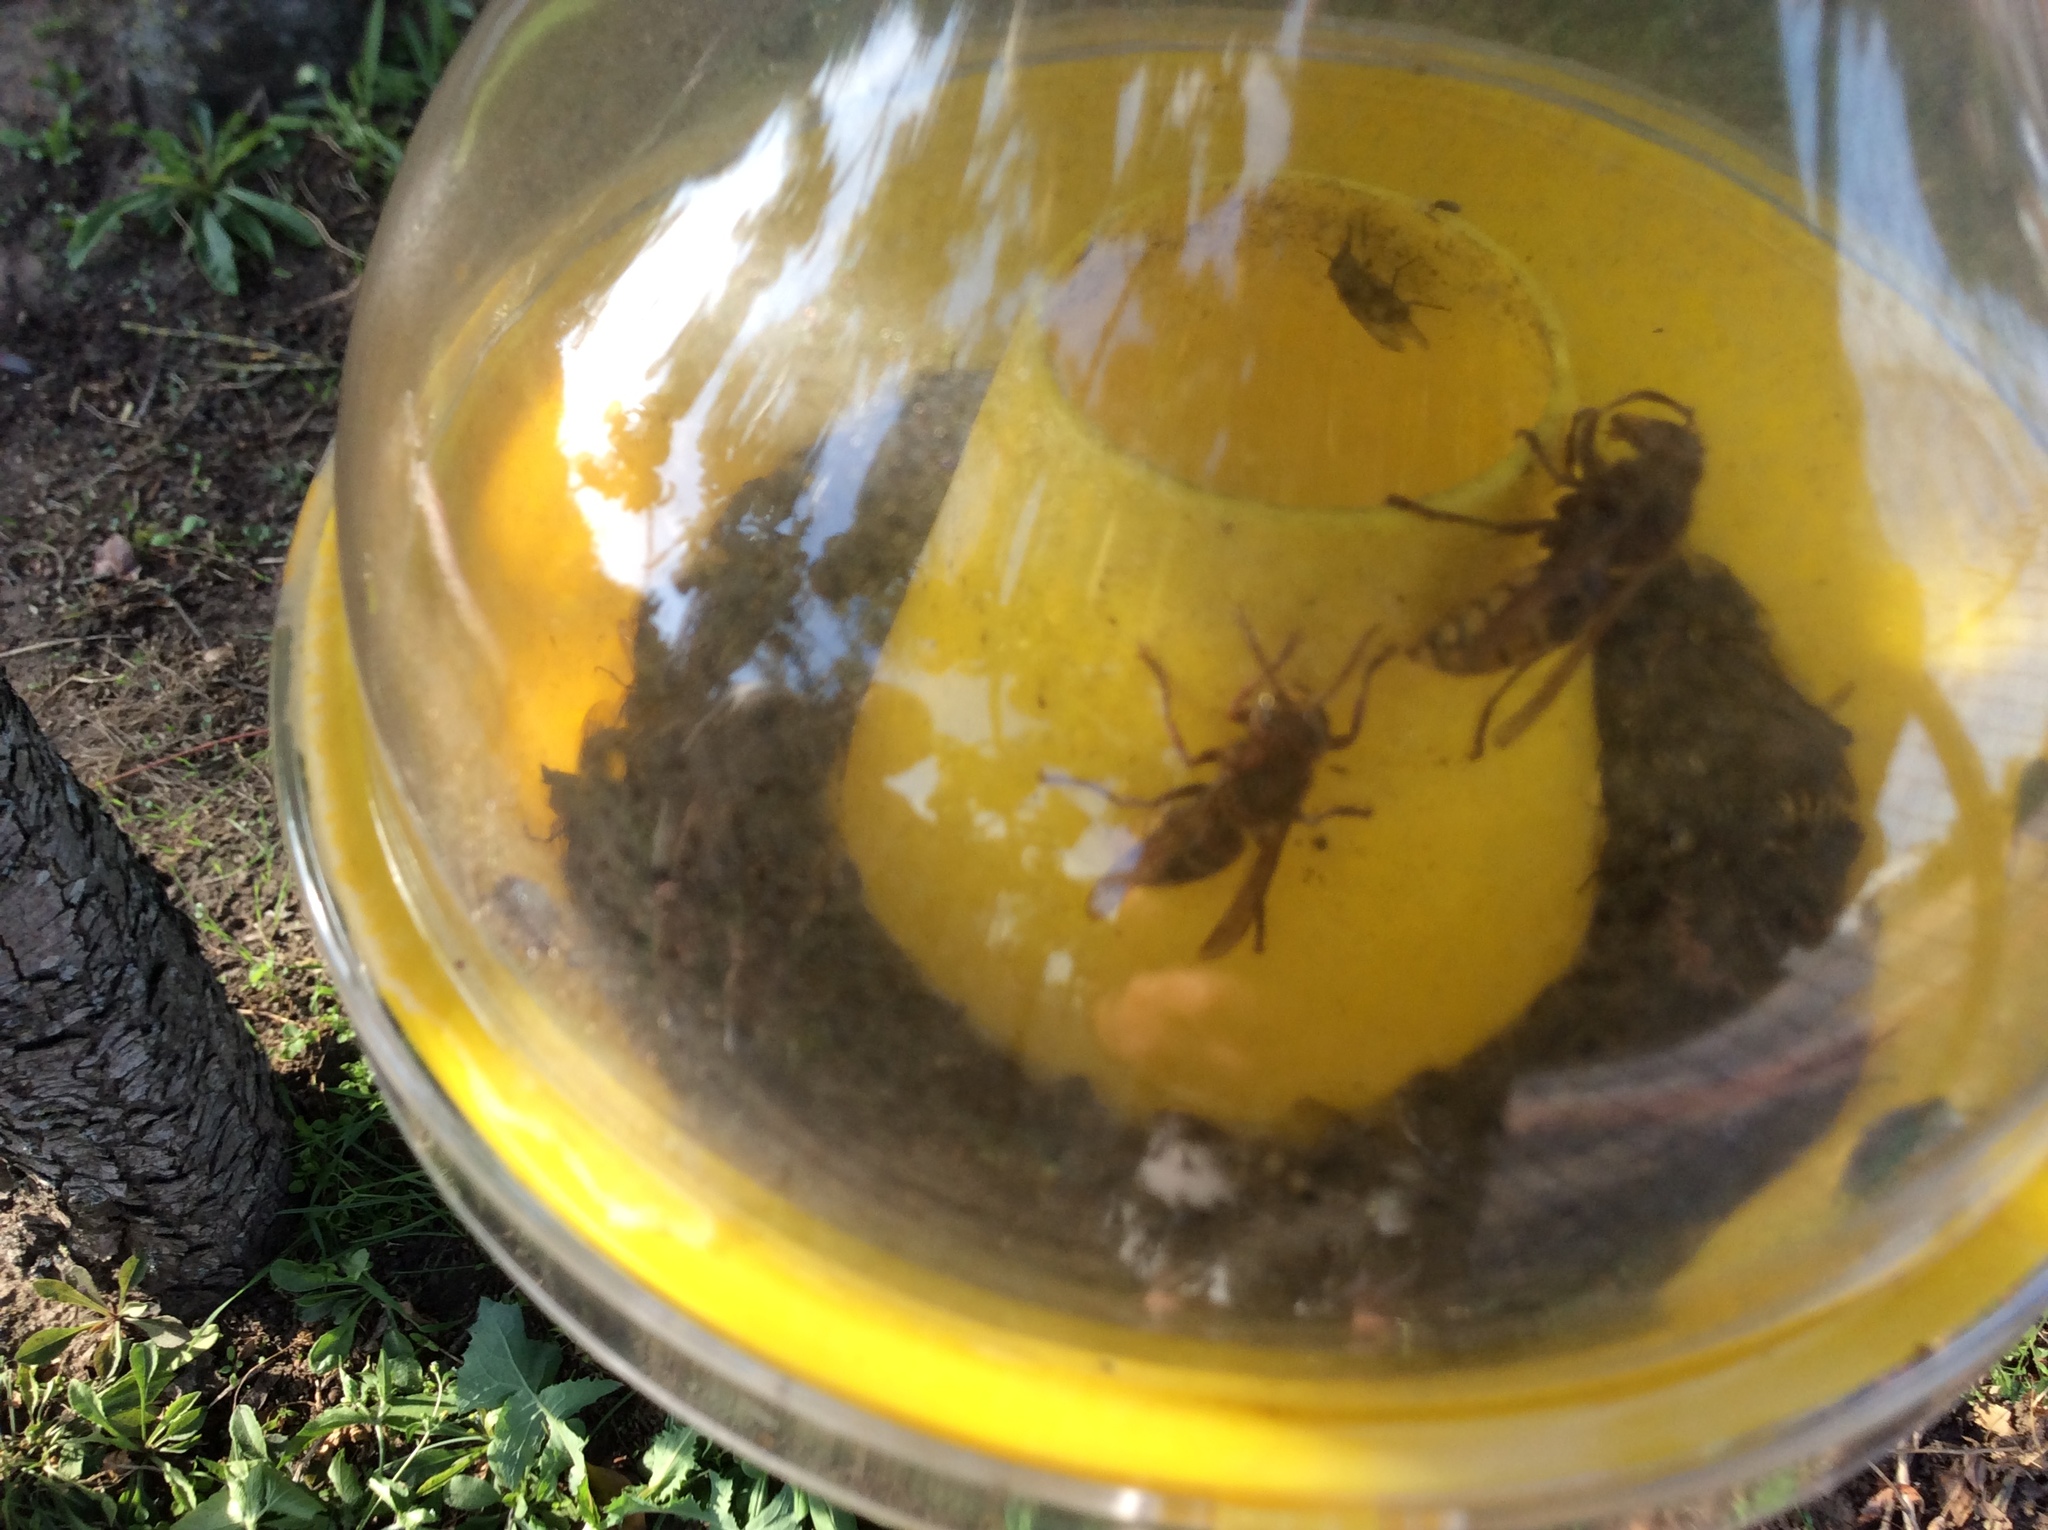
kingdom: Animalia
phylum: Arthropoda
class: Insecta
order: Hymenoptera
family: Vespidae
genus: Vespa
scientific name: Vespa crabro
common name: Hornet
